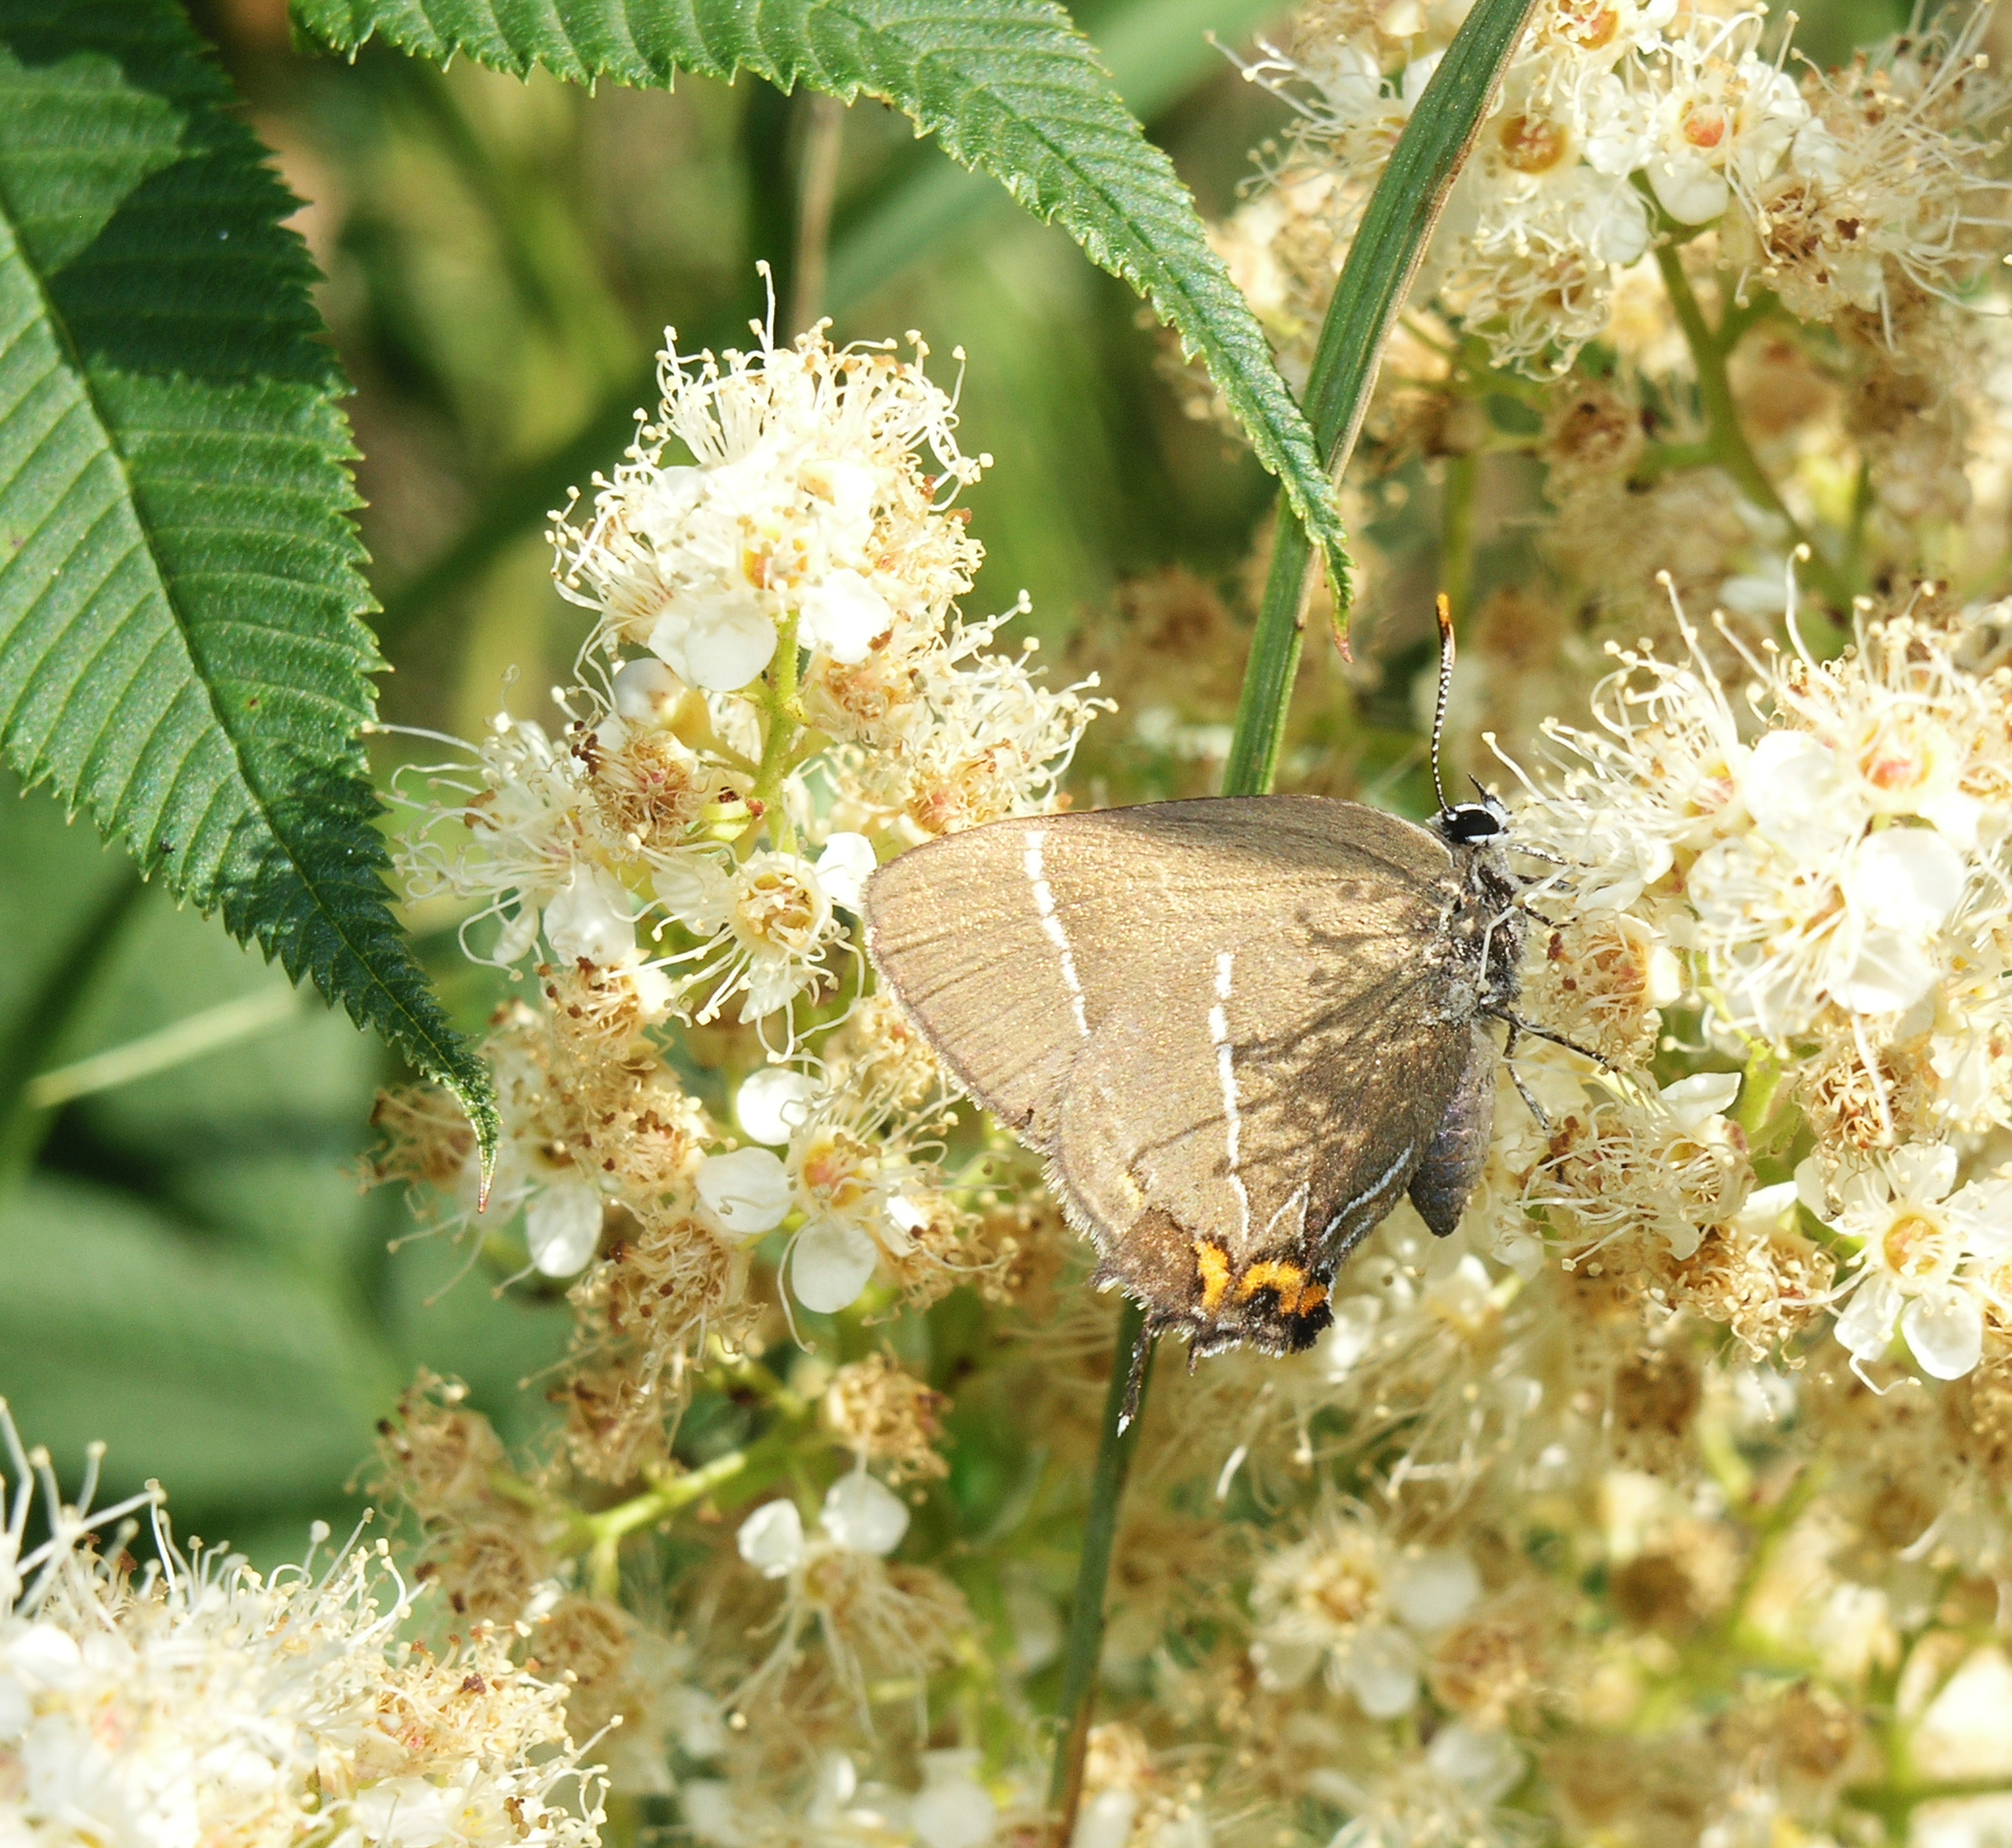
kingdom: Animalia
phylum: Arthropoda
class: Insecta
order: Lepidoptera
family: Lycaenidae
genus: Satyrium
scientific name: Satyrium w-album
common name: White-letter hairstreak
